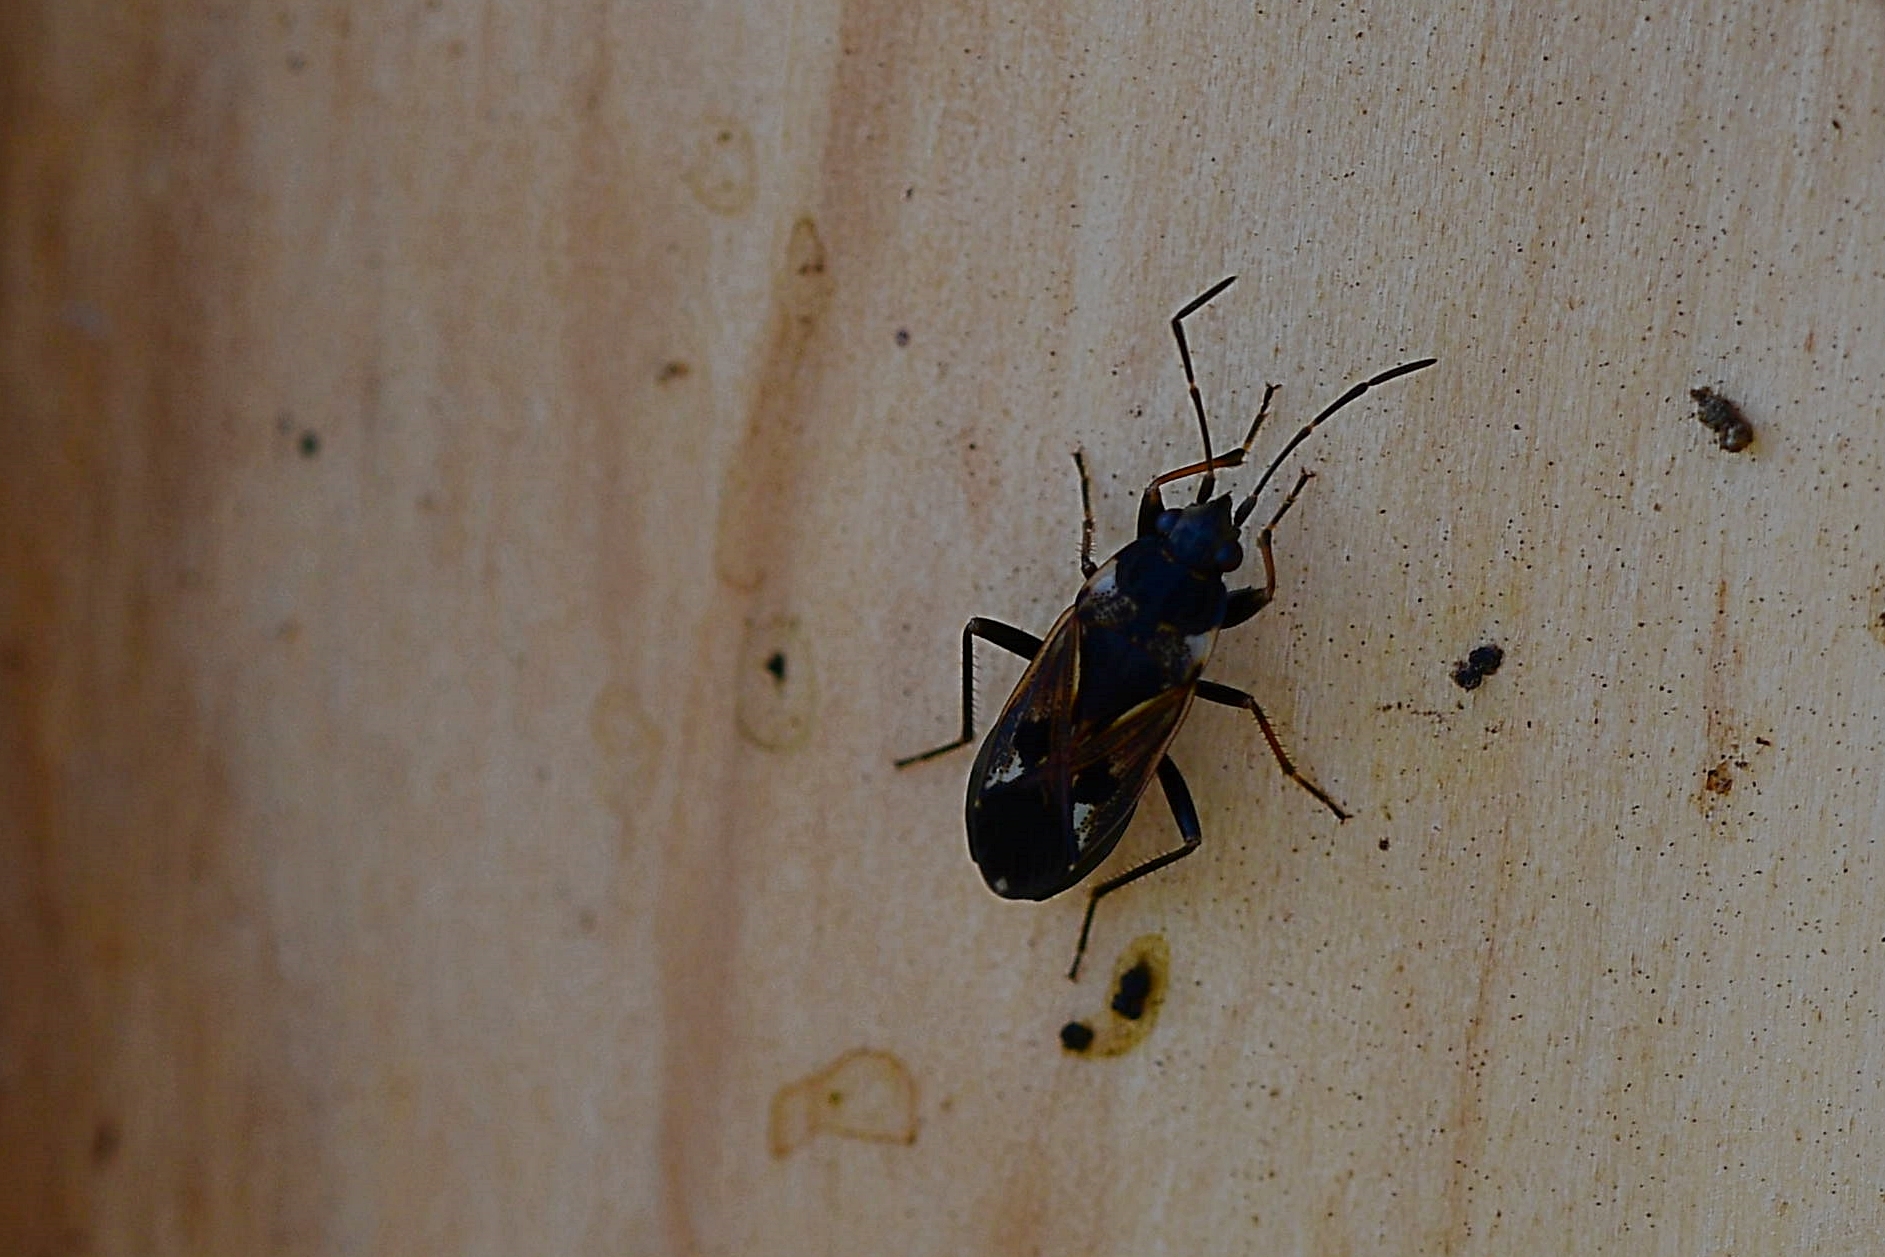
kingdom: Animalia
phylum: Arthropoda
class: Insecta
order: Hemiptera
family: Rhyparochromidae
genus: Rhyparochromus
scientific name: Rhyparochromus vulgaris
